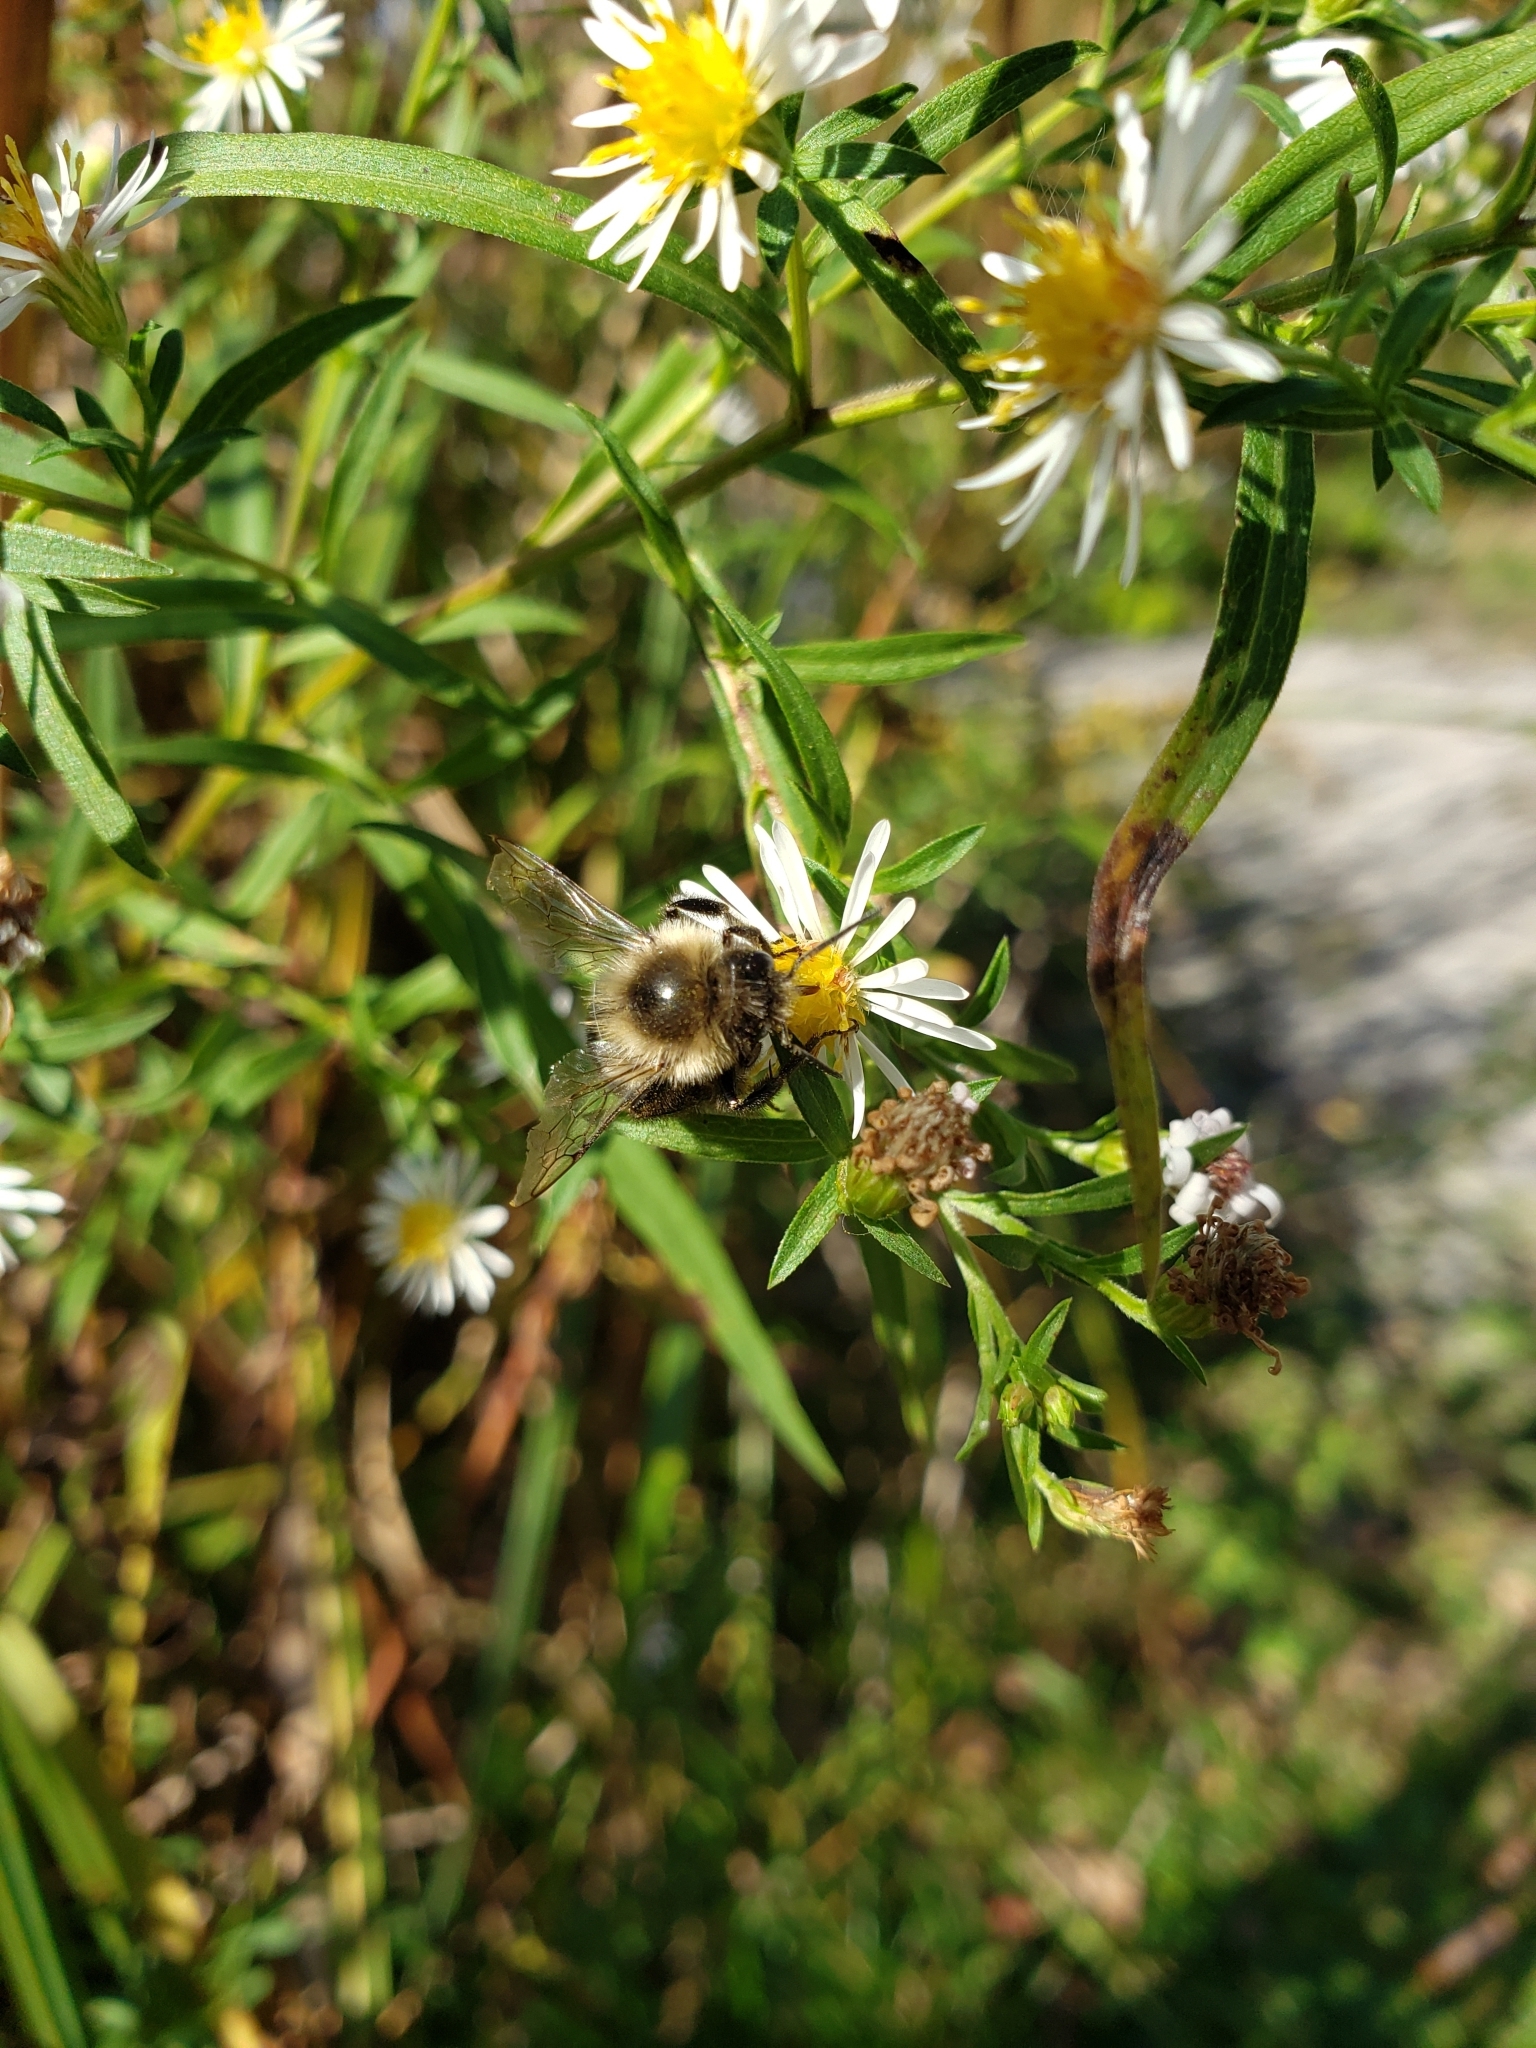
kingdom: Animalia
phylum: Arthropoda
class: Insecta
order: Hymenoptera
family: Apidae
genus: Bombus
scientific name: Bombus impatiens
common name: Common eastern bumble bee
